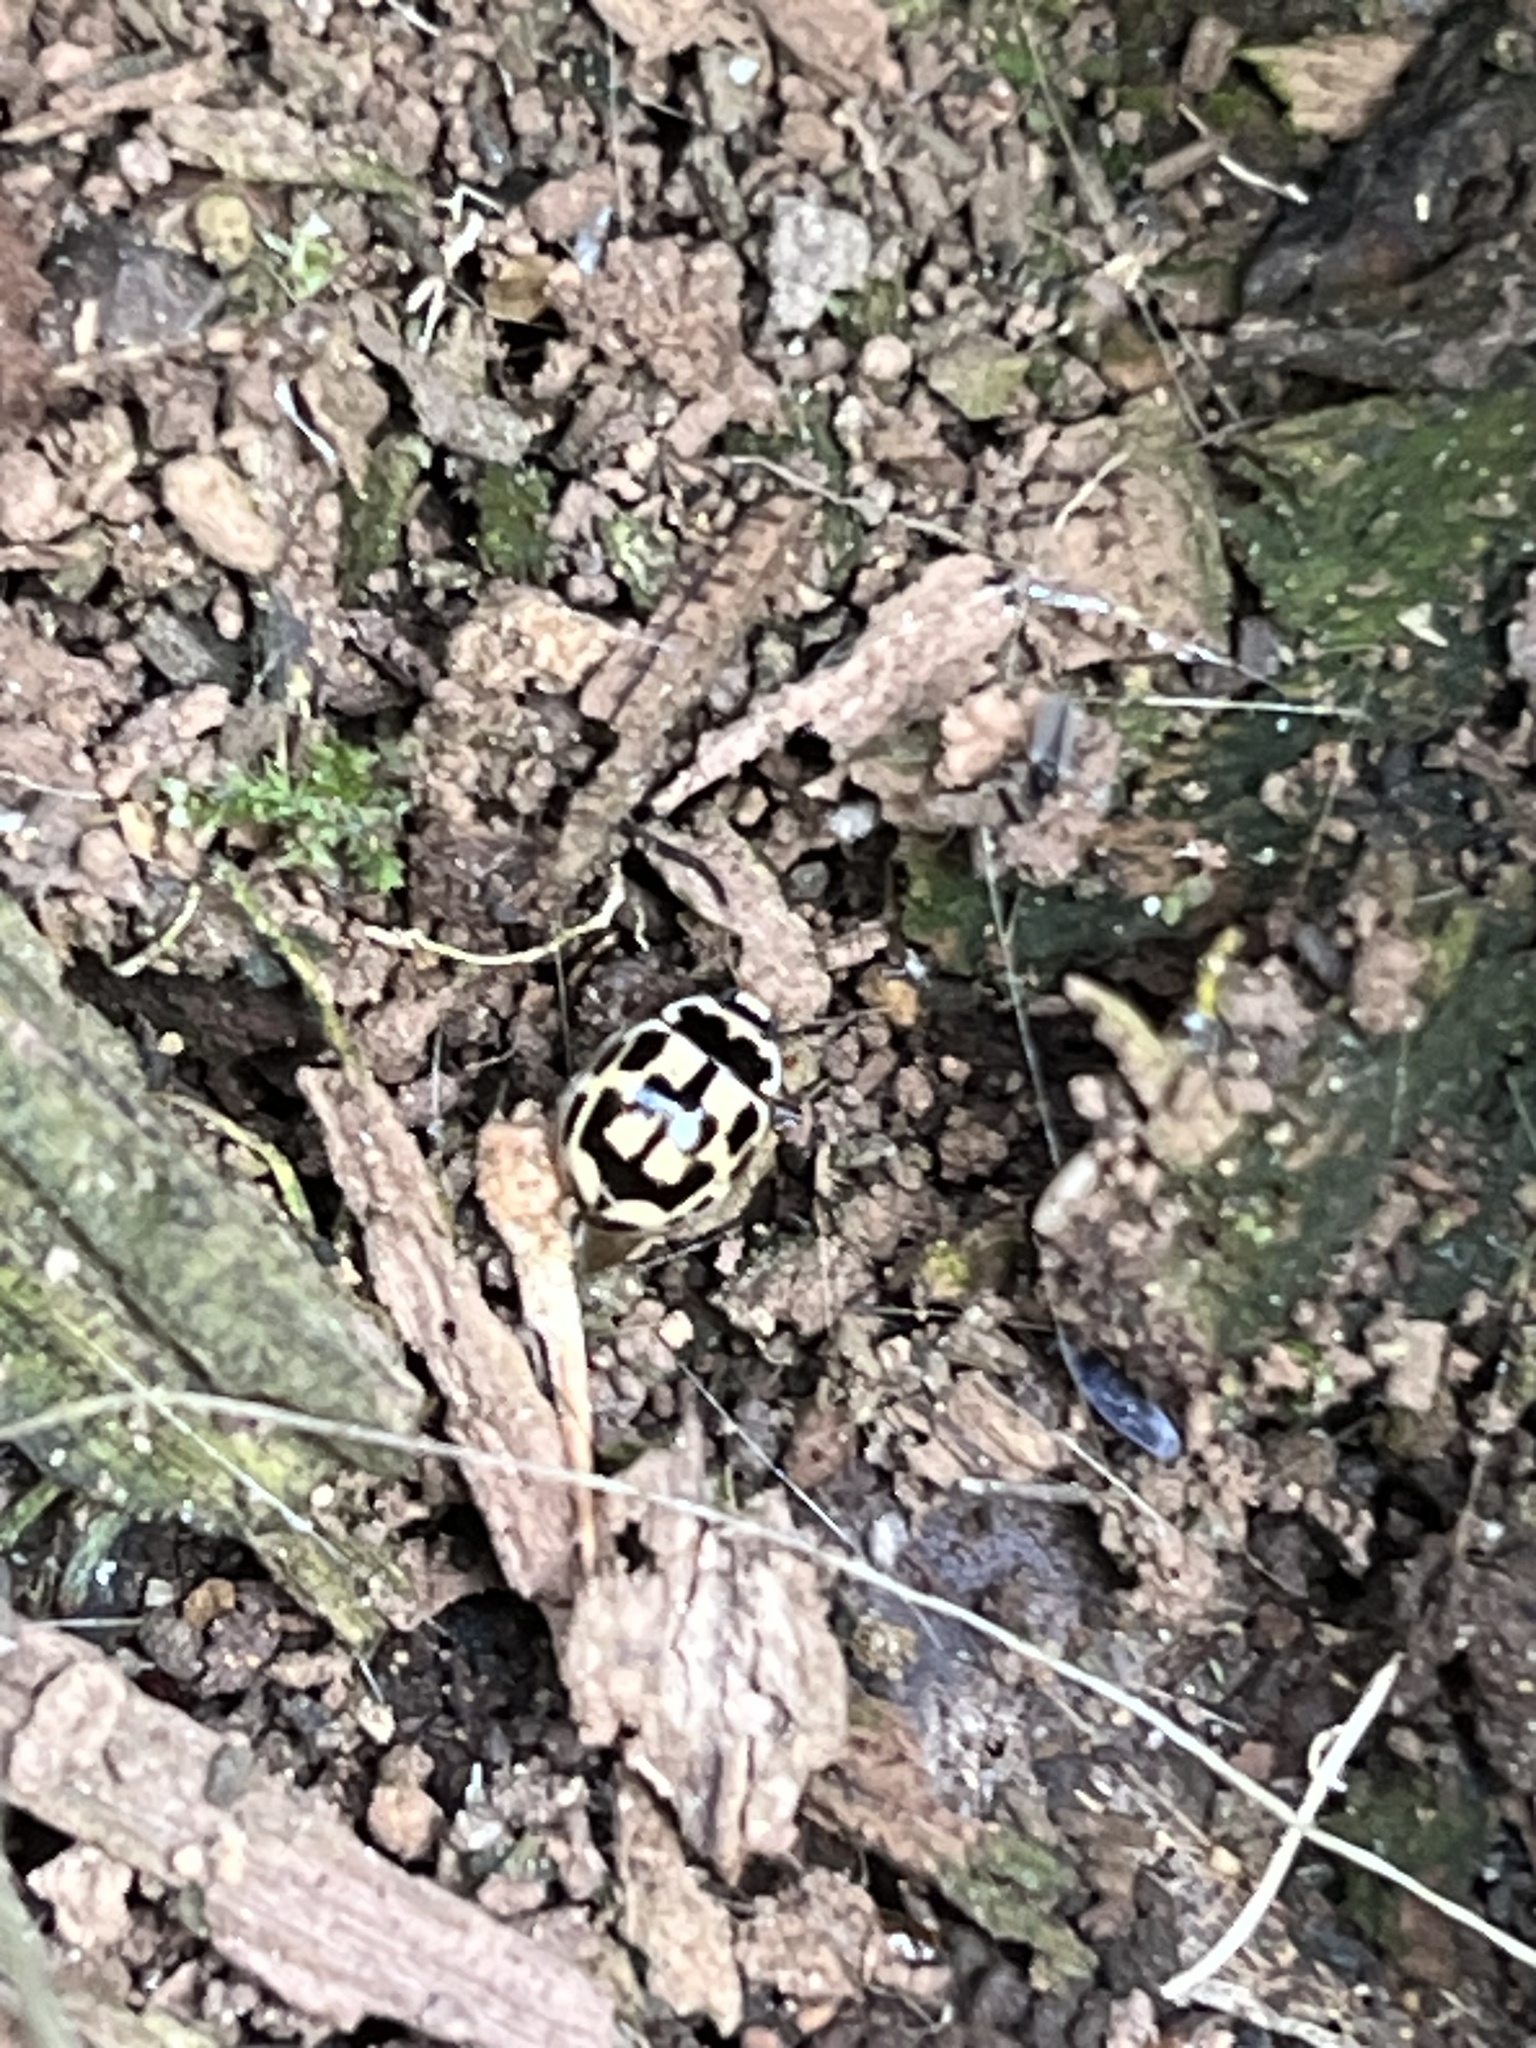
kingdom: Animalia
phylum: Arthropoda
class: Insecta
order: Coleoptera
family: Coccinellidae
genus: Propylaea
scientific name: Propylaea quatuordecimpunctata
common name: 14-spotted ladybird beetle
